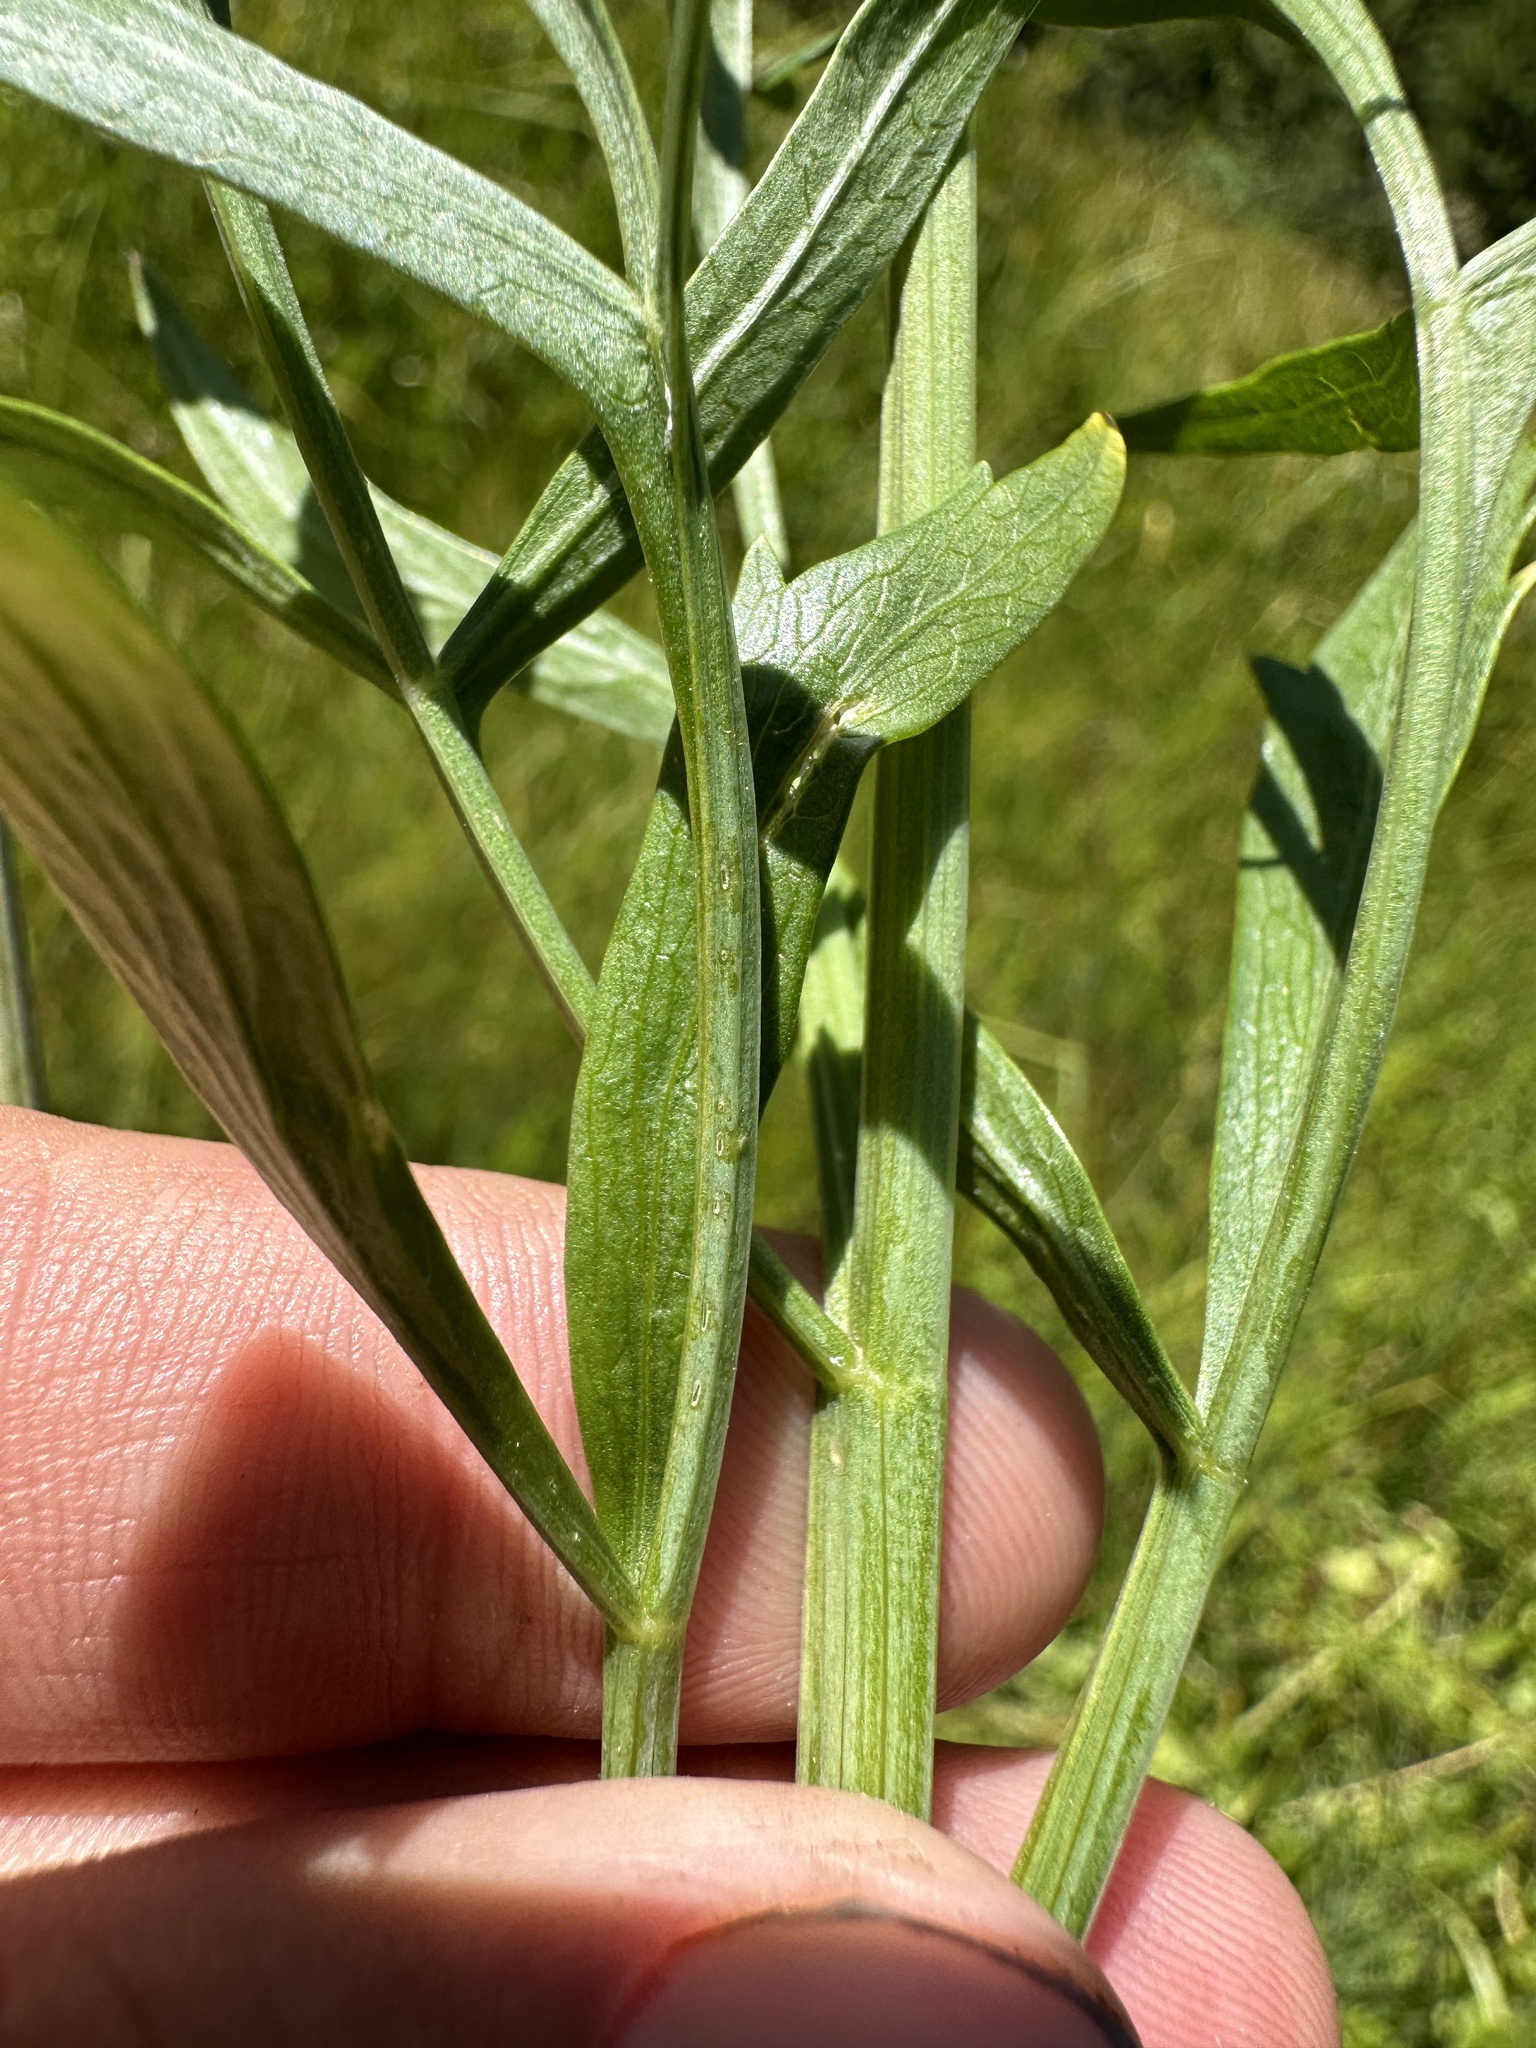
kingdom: Plantae
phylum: Tracheophyta
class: Magnoliopsida
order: Apiales
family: Apiaceae
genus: Angelica
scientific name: Angelica capitellata
